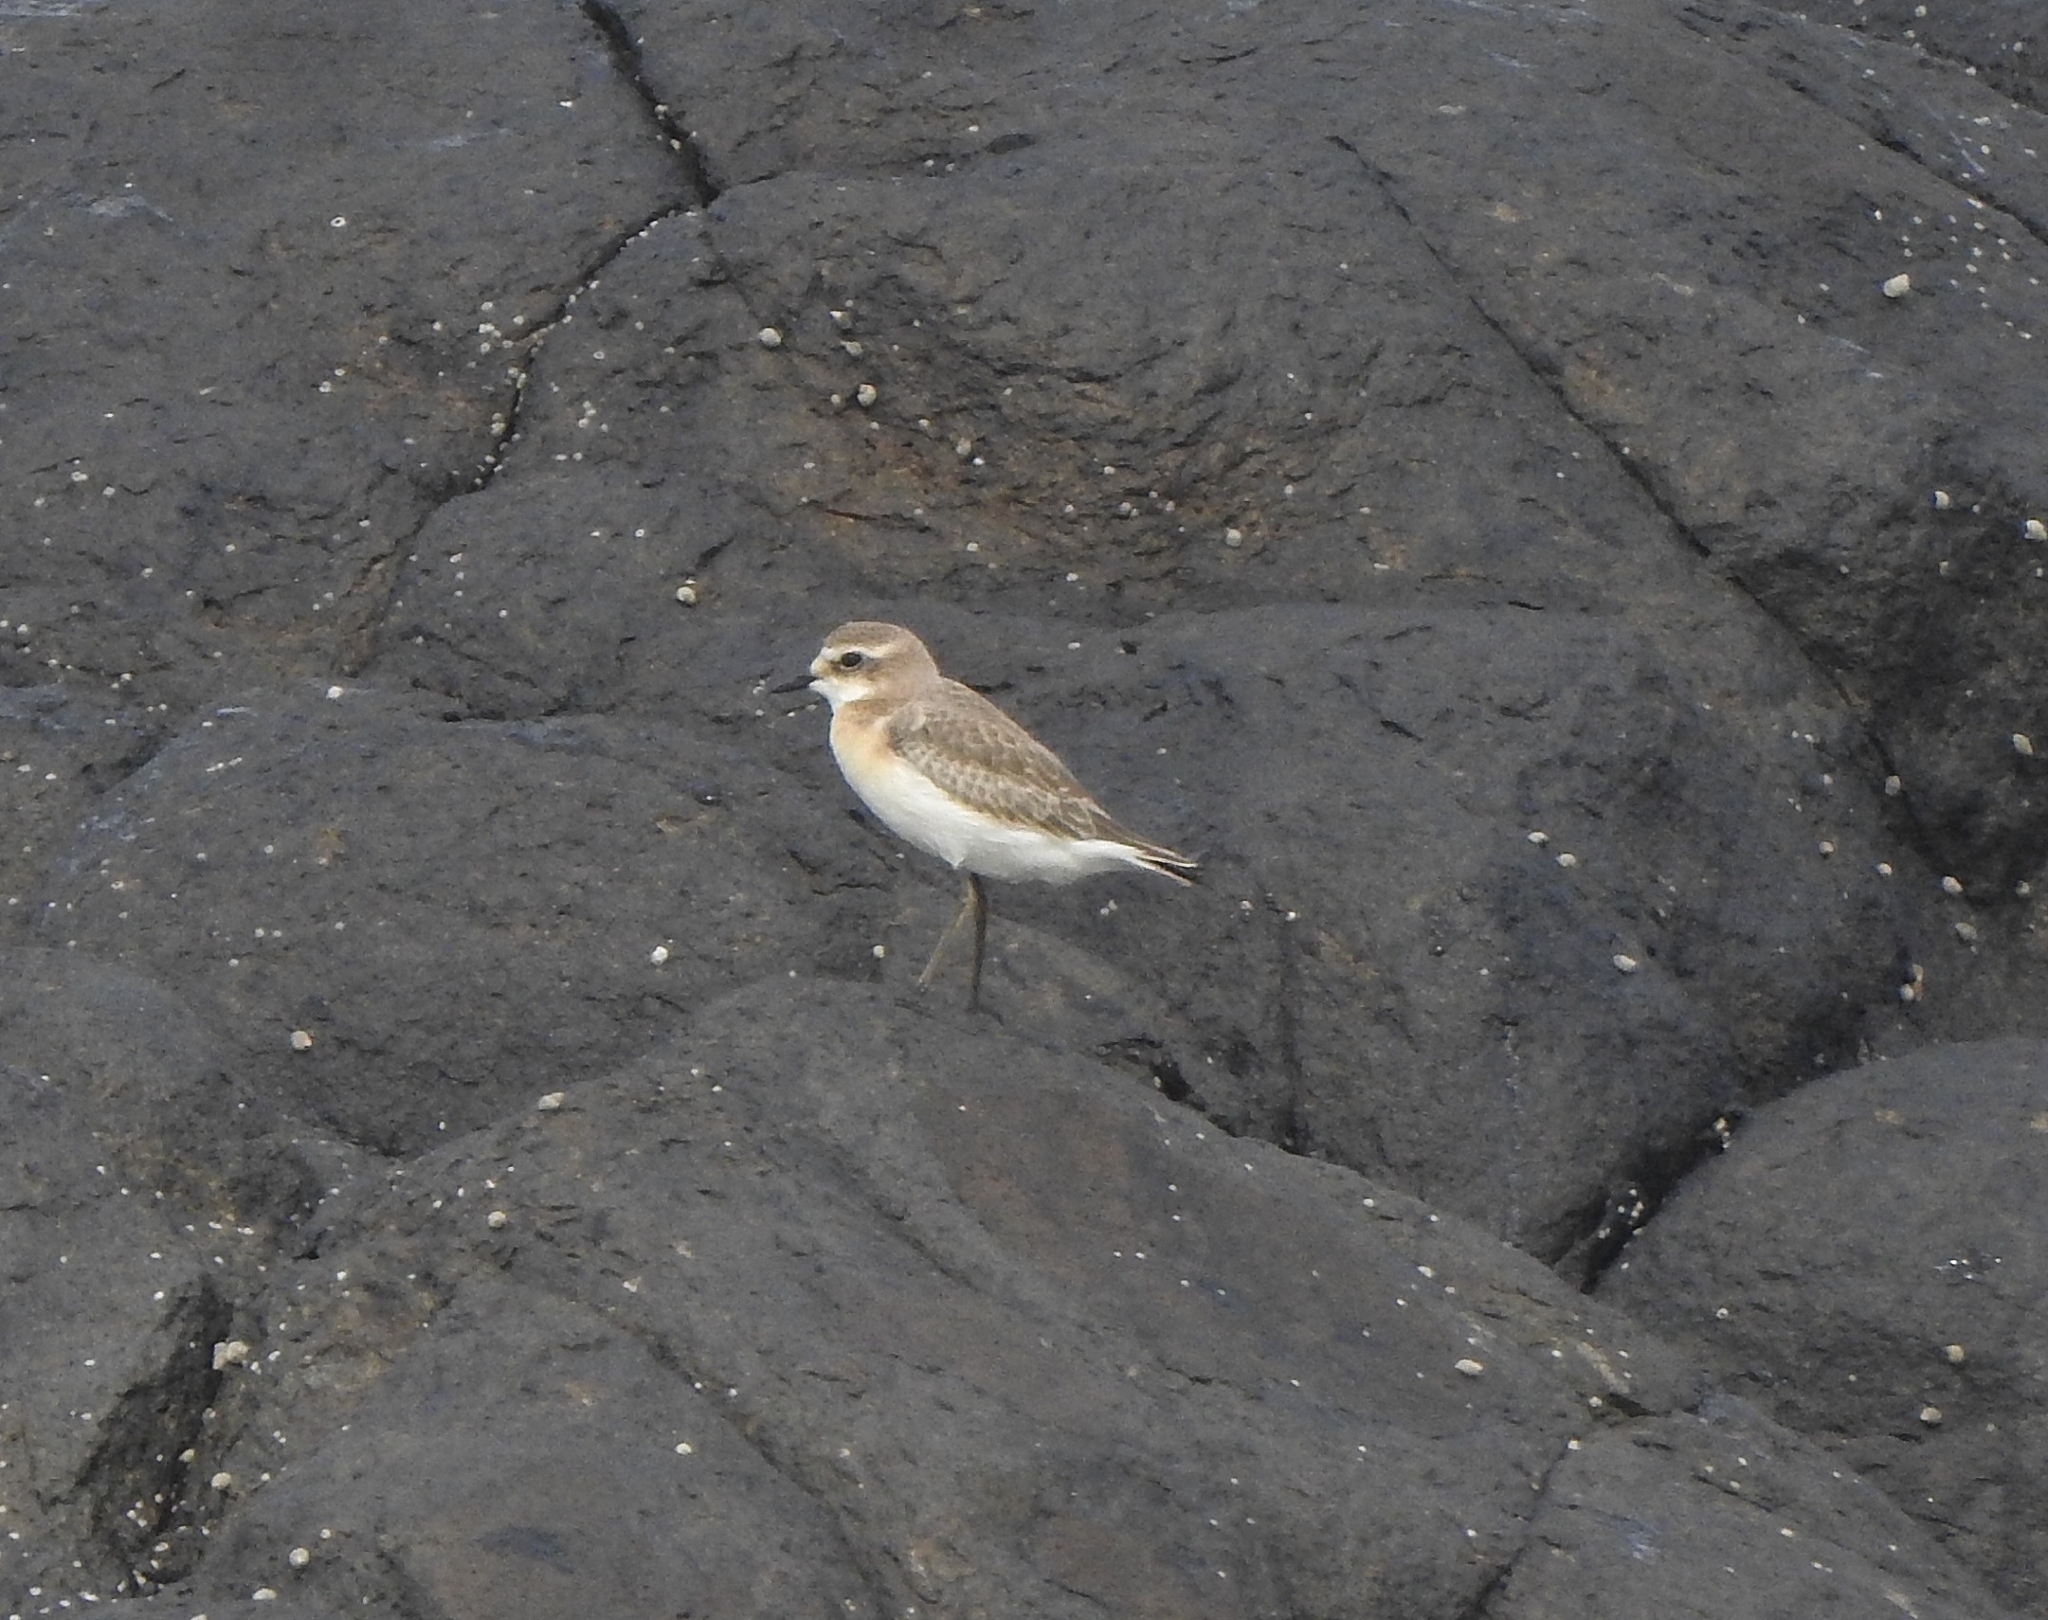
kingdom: Animalia
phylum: Chordata
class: Aves
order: Charadriiformes
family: Charadriidae
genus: Anarhynchus
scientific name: Anarhynchus
